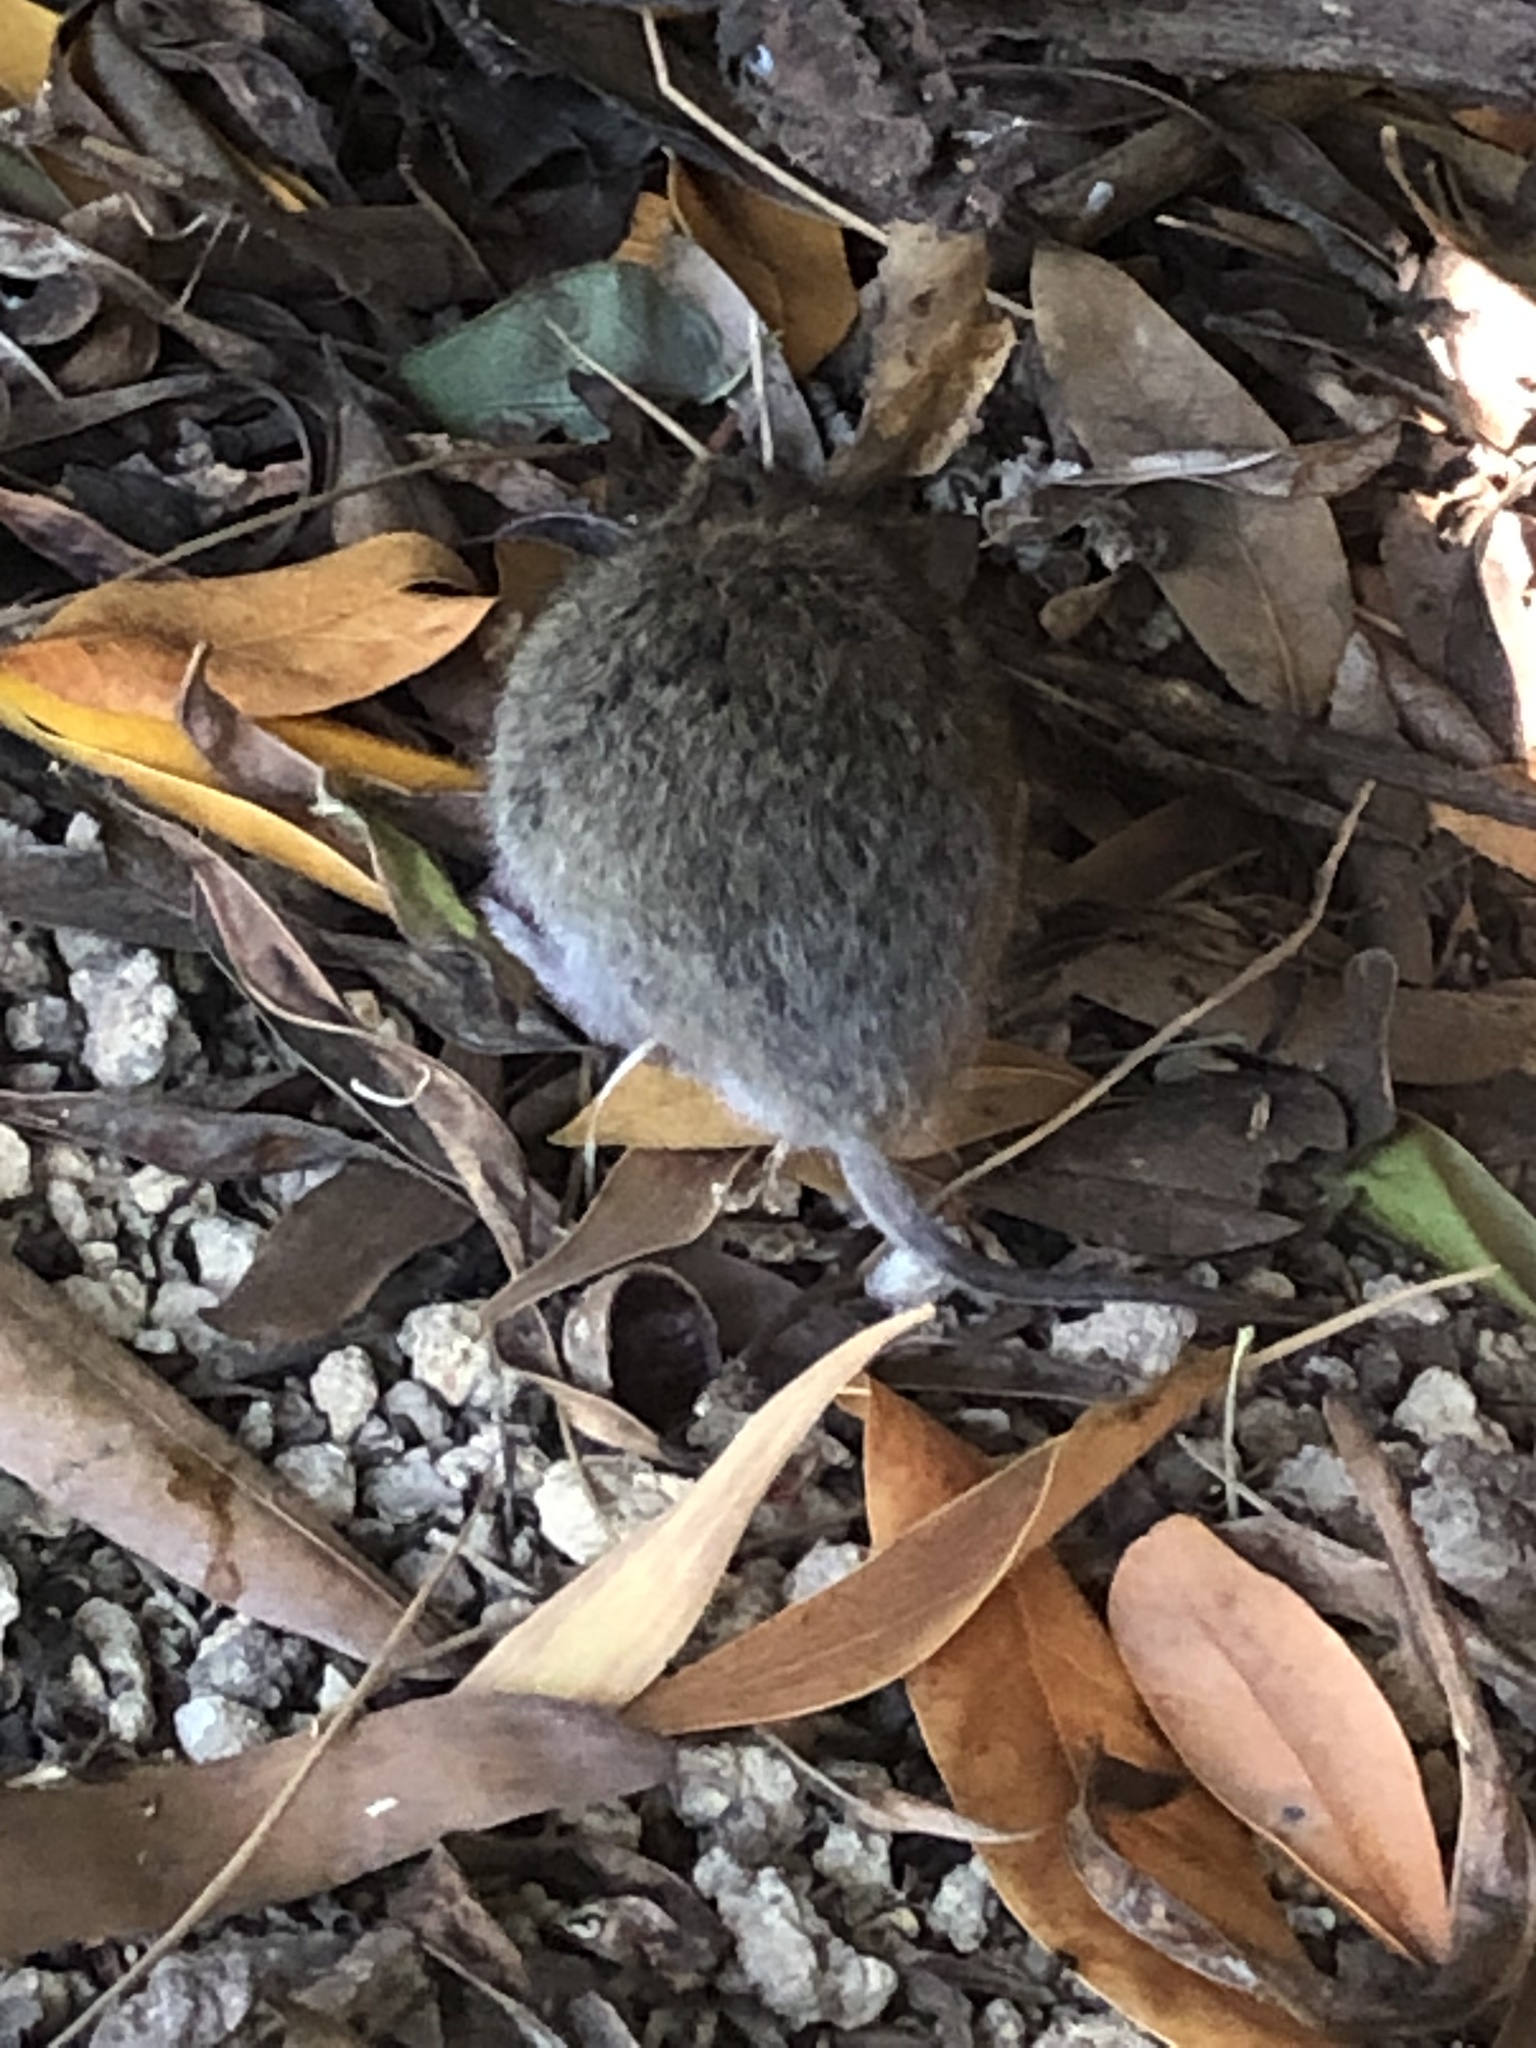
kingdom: Animalia
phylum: Chordata
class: Mammalia
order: Rodentia
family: Cricetidae
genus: Microtus
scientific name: Microtus californicus
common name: California vole
